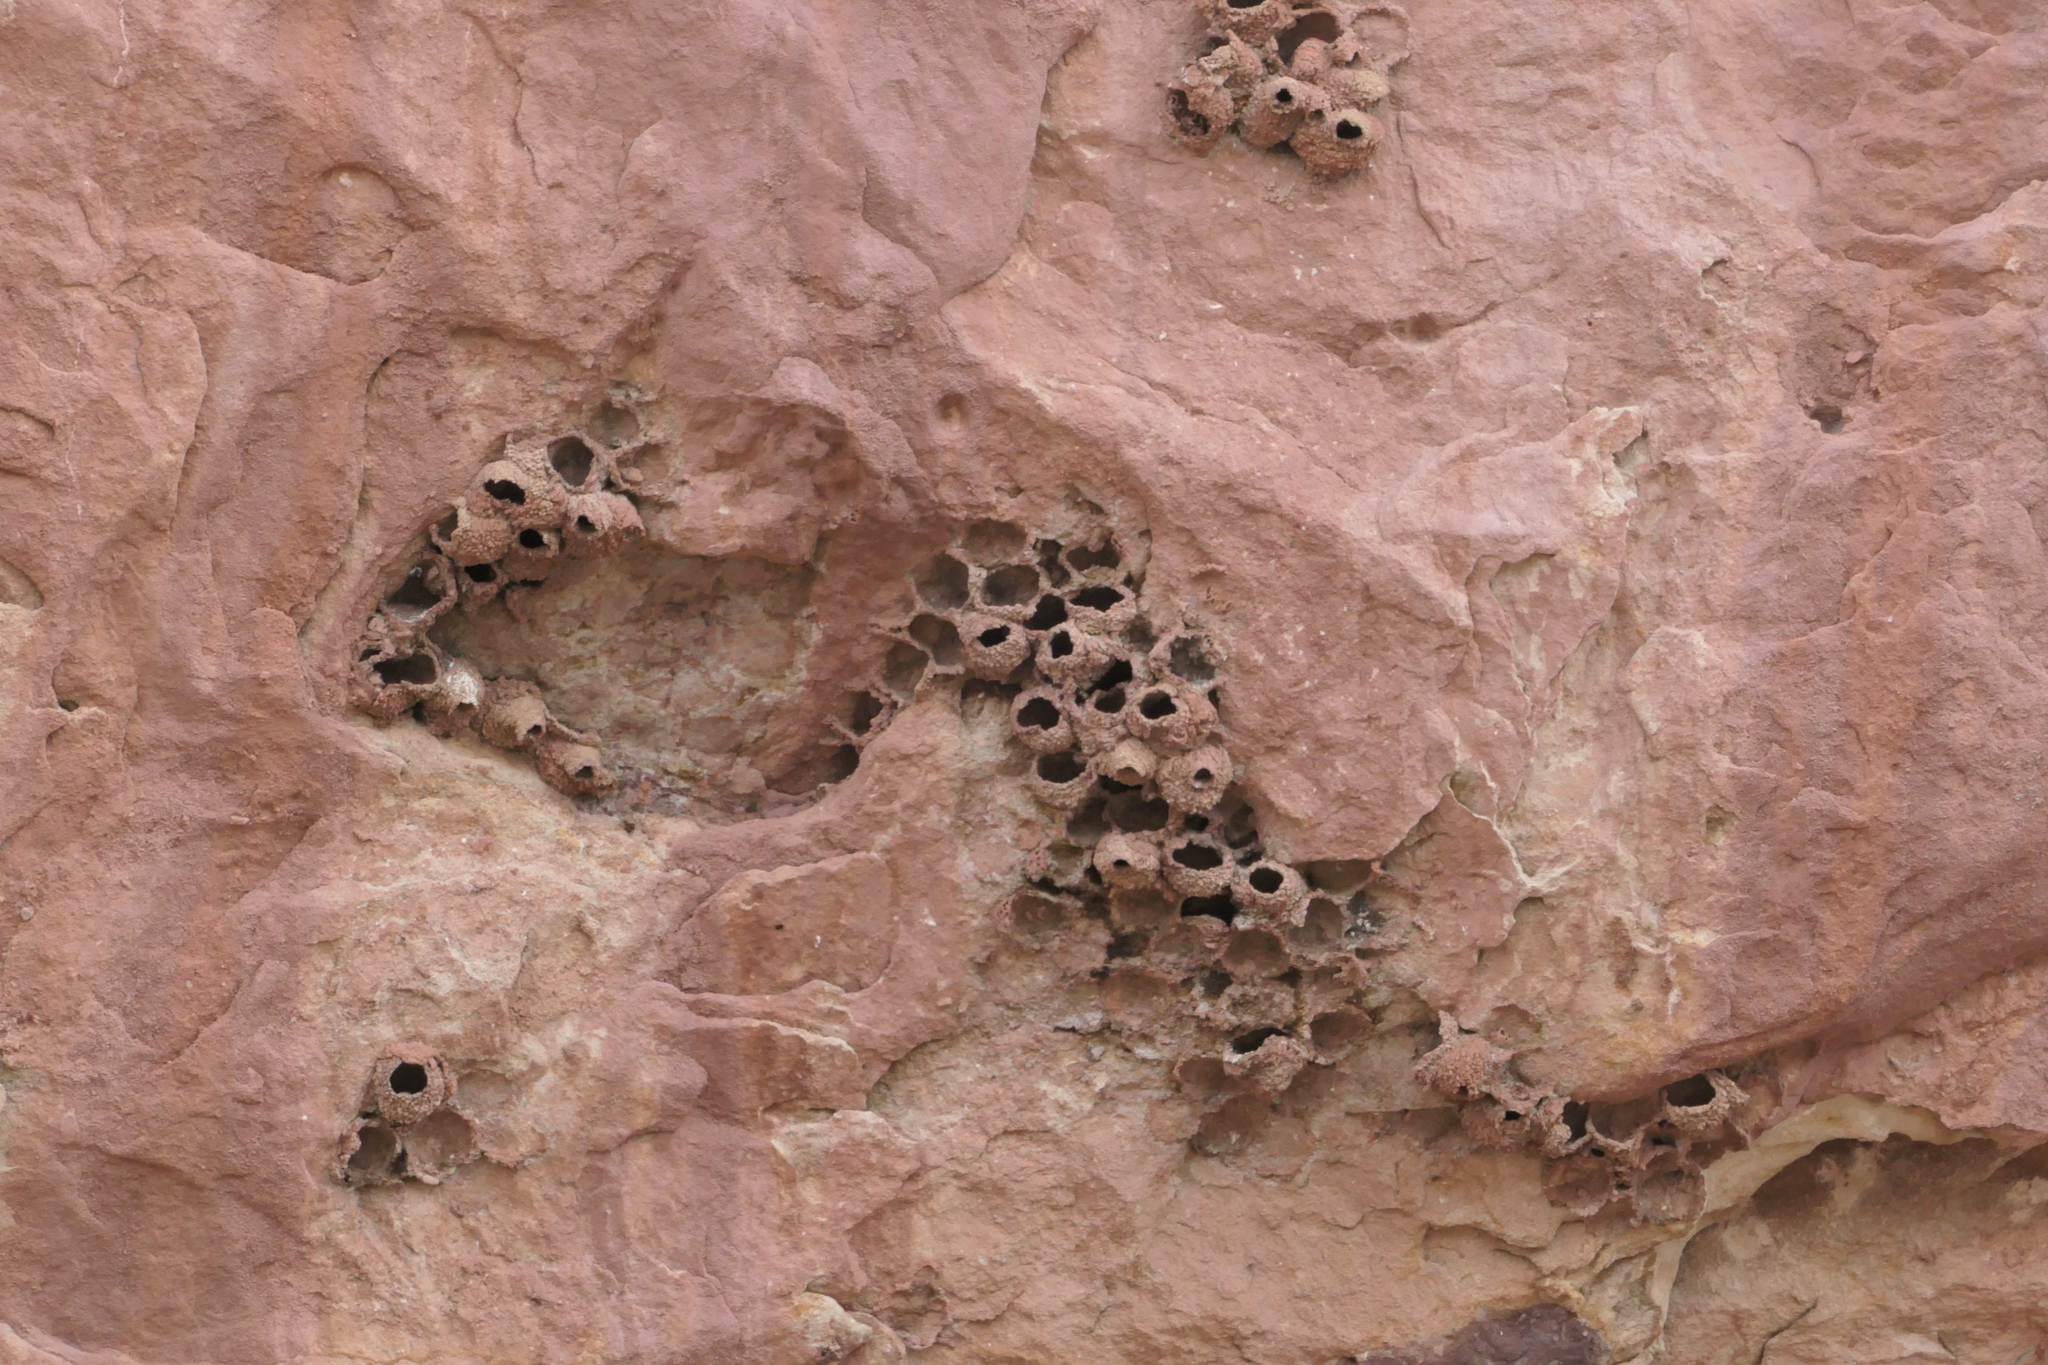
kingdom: Animalia
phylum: Chordata
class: Aves
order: Passeriformes
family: Hirundinidae
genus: Petrochelidon
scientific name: Petrochelidon pyrrhonota
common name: American cliff swallow
